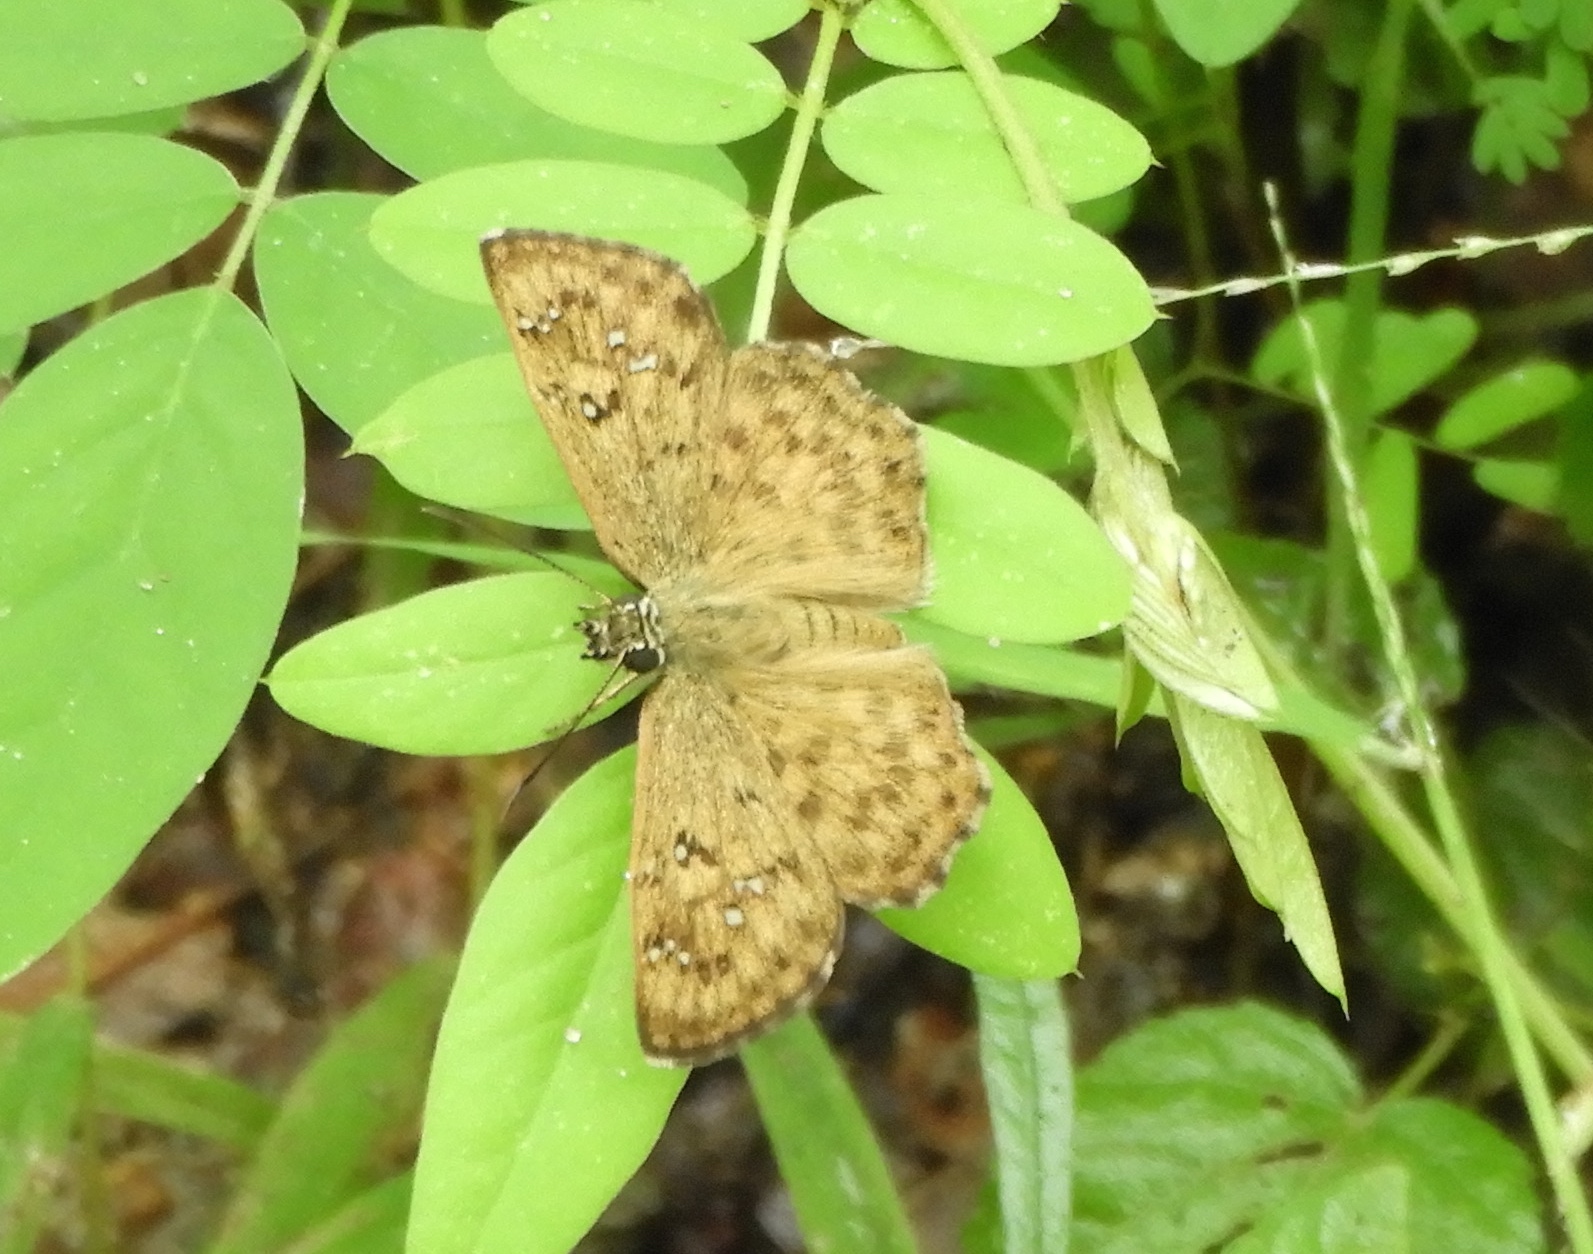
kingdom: Animalia
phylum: Arthropoda
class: Insecta
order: Lepidoptera
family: Hesperiidae
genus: Carrhenes
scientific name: Carrhenes fuscescens
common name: Tanned hoary-skipper
